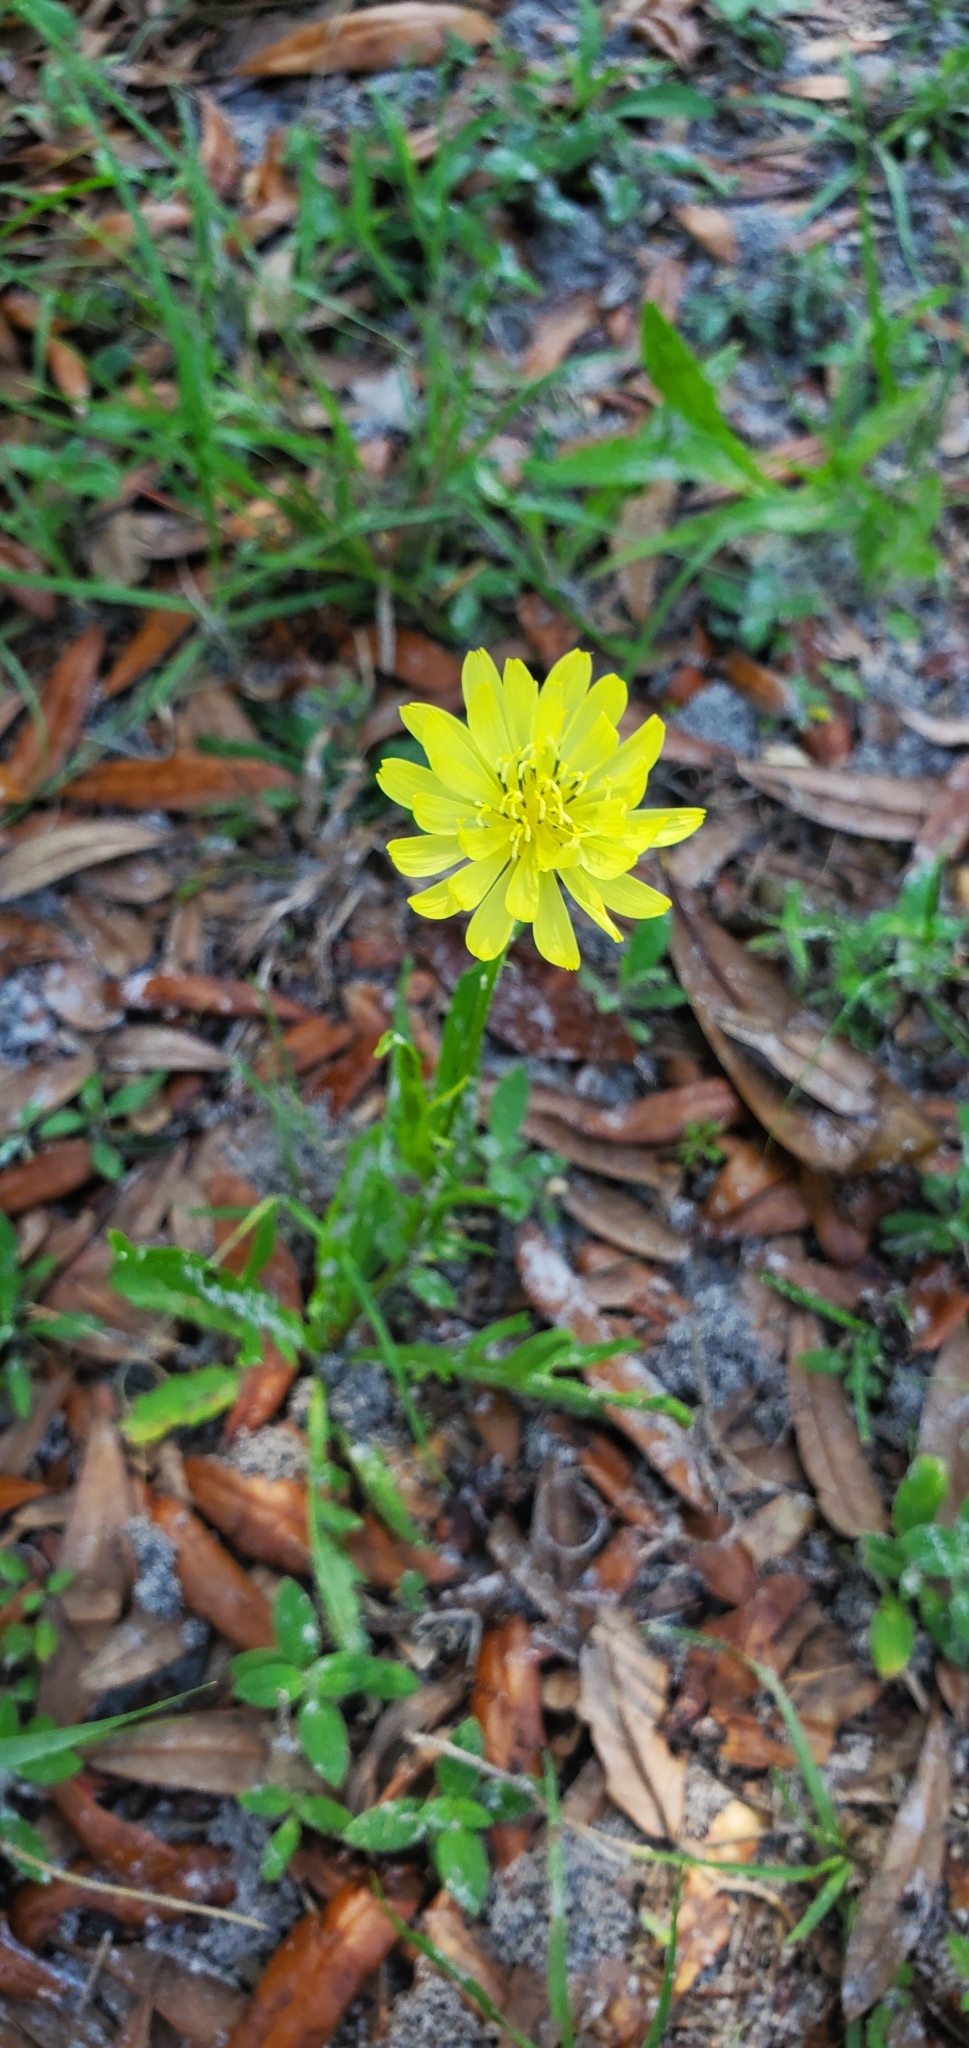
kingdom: Plantae
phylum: Tracheophyta
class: Magnoliopsida
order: Asterales
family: Asteraceae
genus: Pyrrhopappus
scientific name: Pyrrhopappus carolinianus
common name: Carolina desert-chicory
